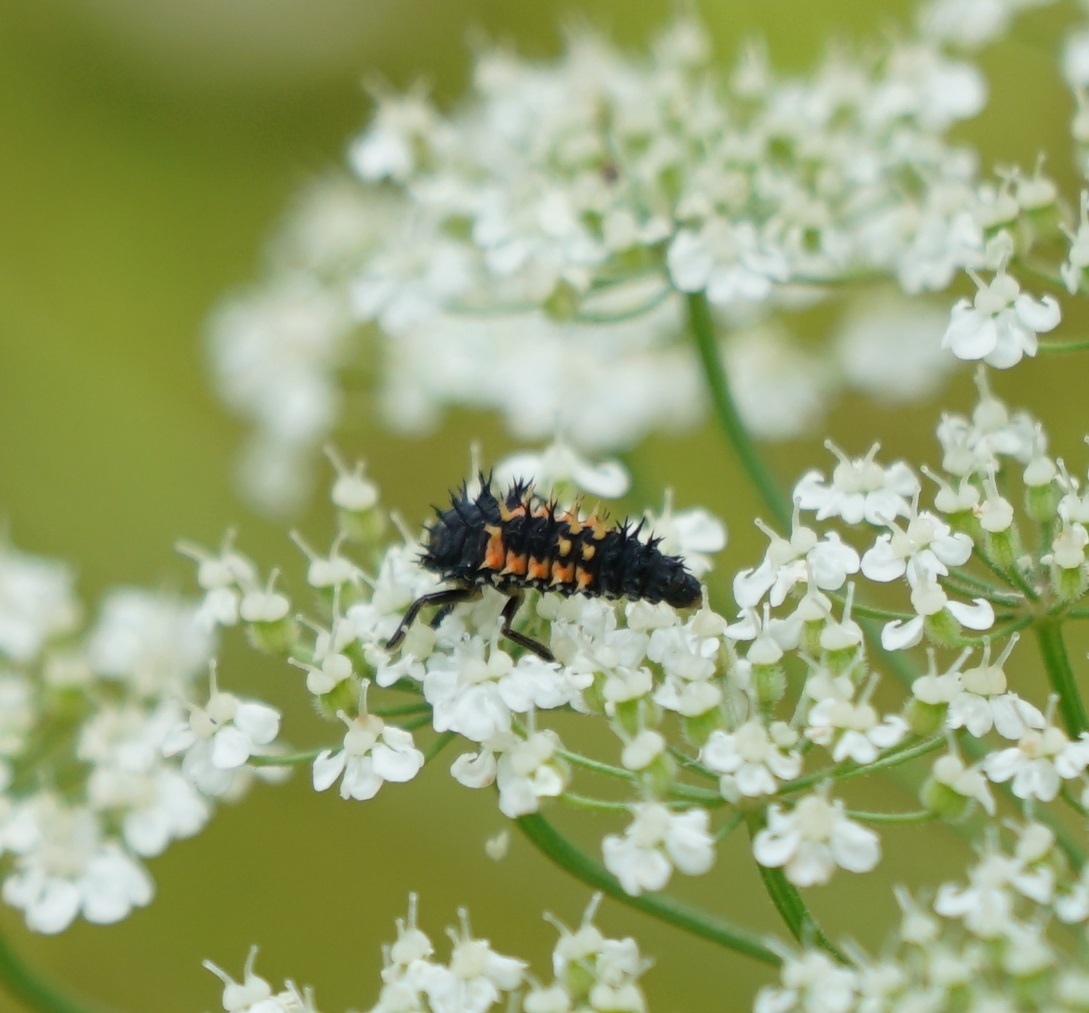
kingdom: Animalia
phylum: Arthropoda
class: Insecta
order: Coleoptera
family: Coccinellidae
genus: Harmonia
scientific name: Harmonia axyridis
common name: Harlequin ladybird
